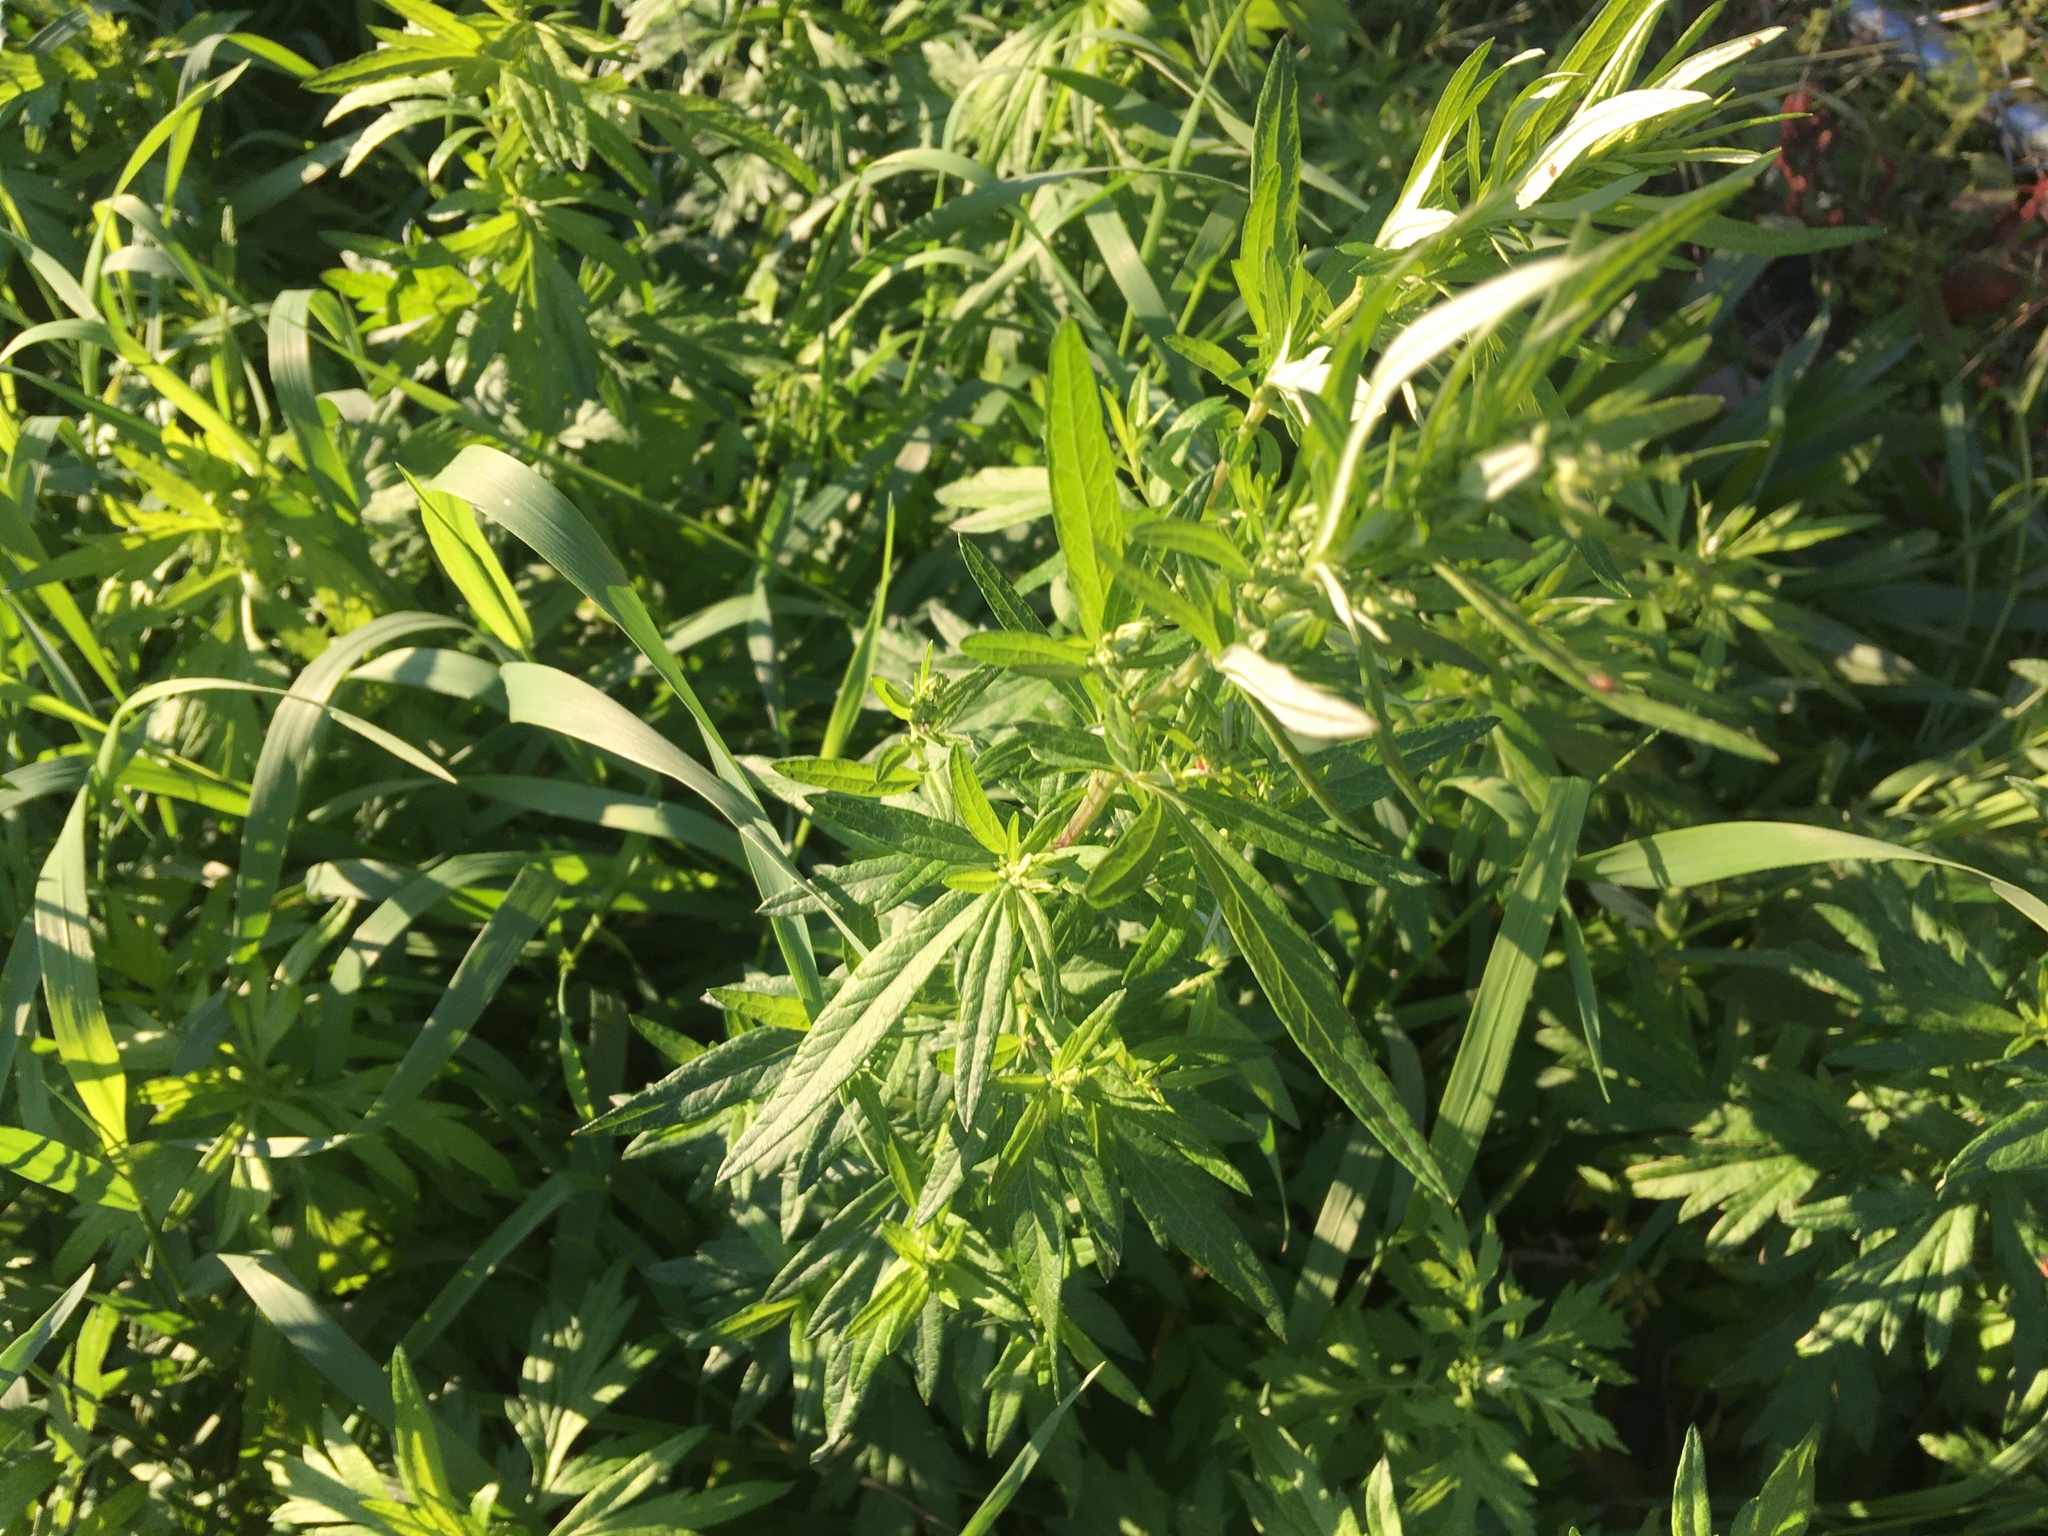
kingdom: Plantae
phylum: Tracheophyta
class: Magnoliopsida
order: Asterales
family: Asteraceae
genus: Artemisia
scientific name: Artemisia vulgaris
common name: Mugwort
